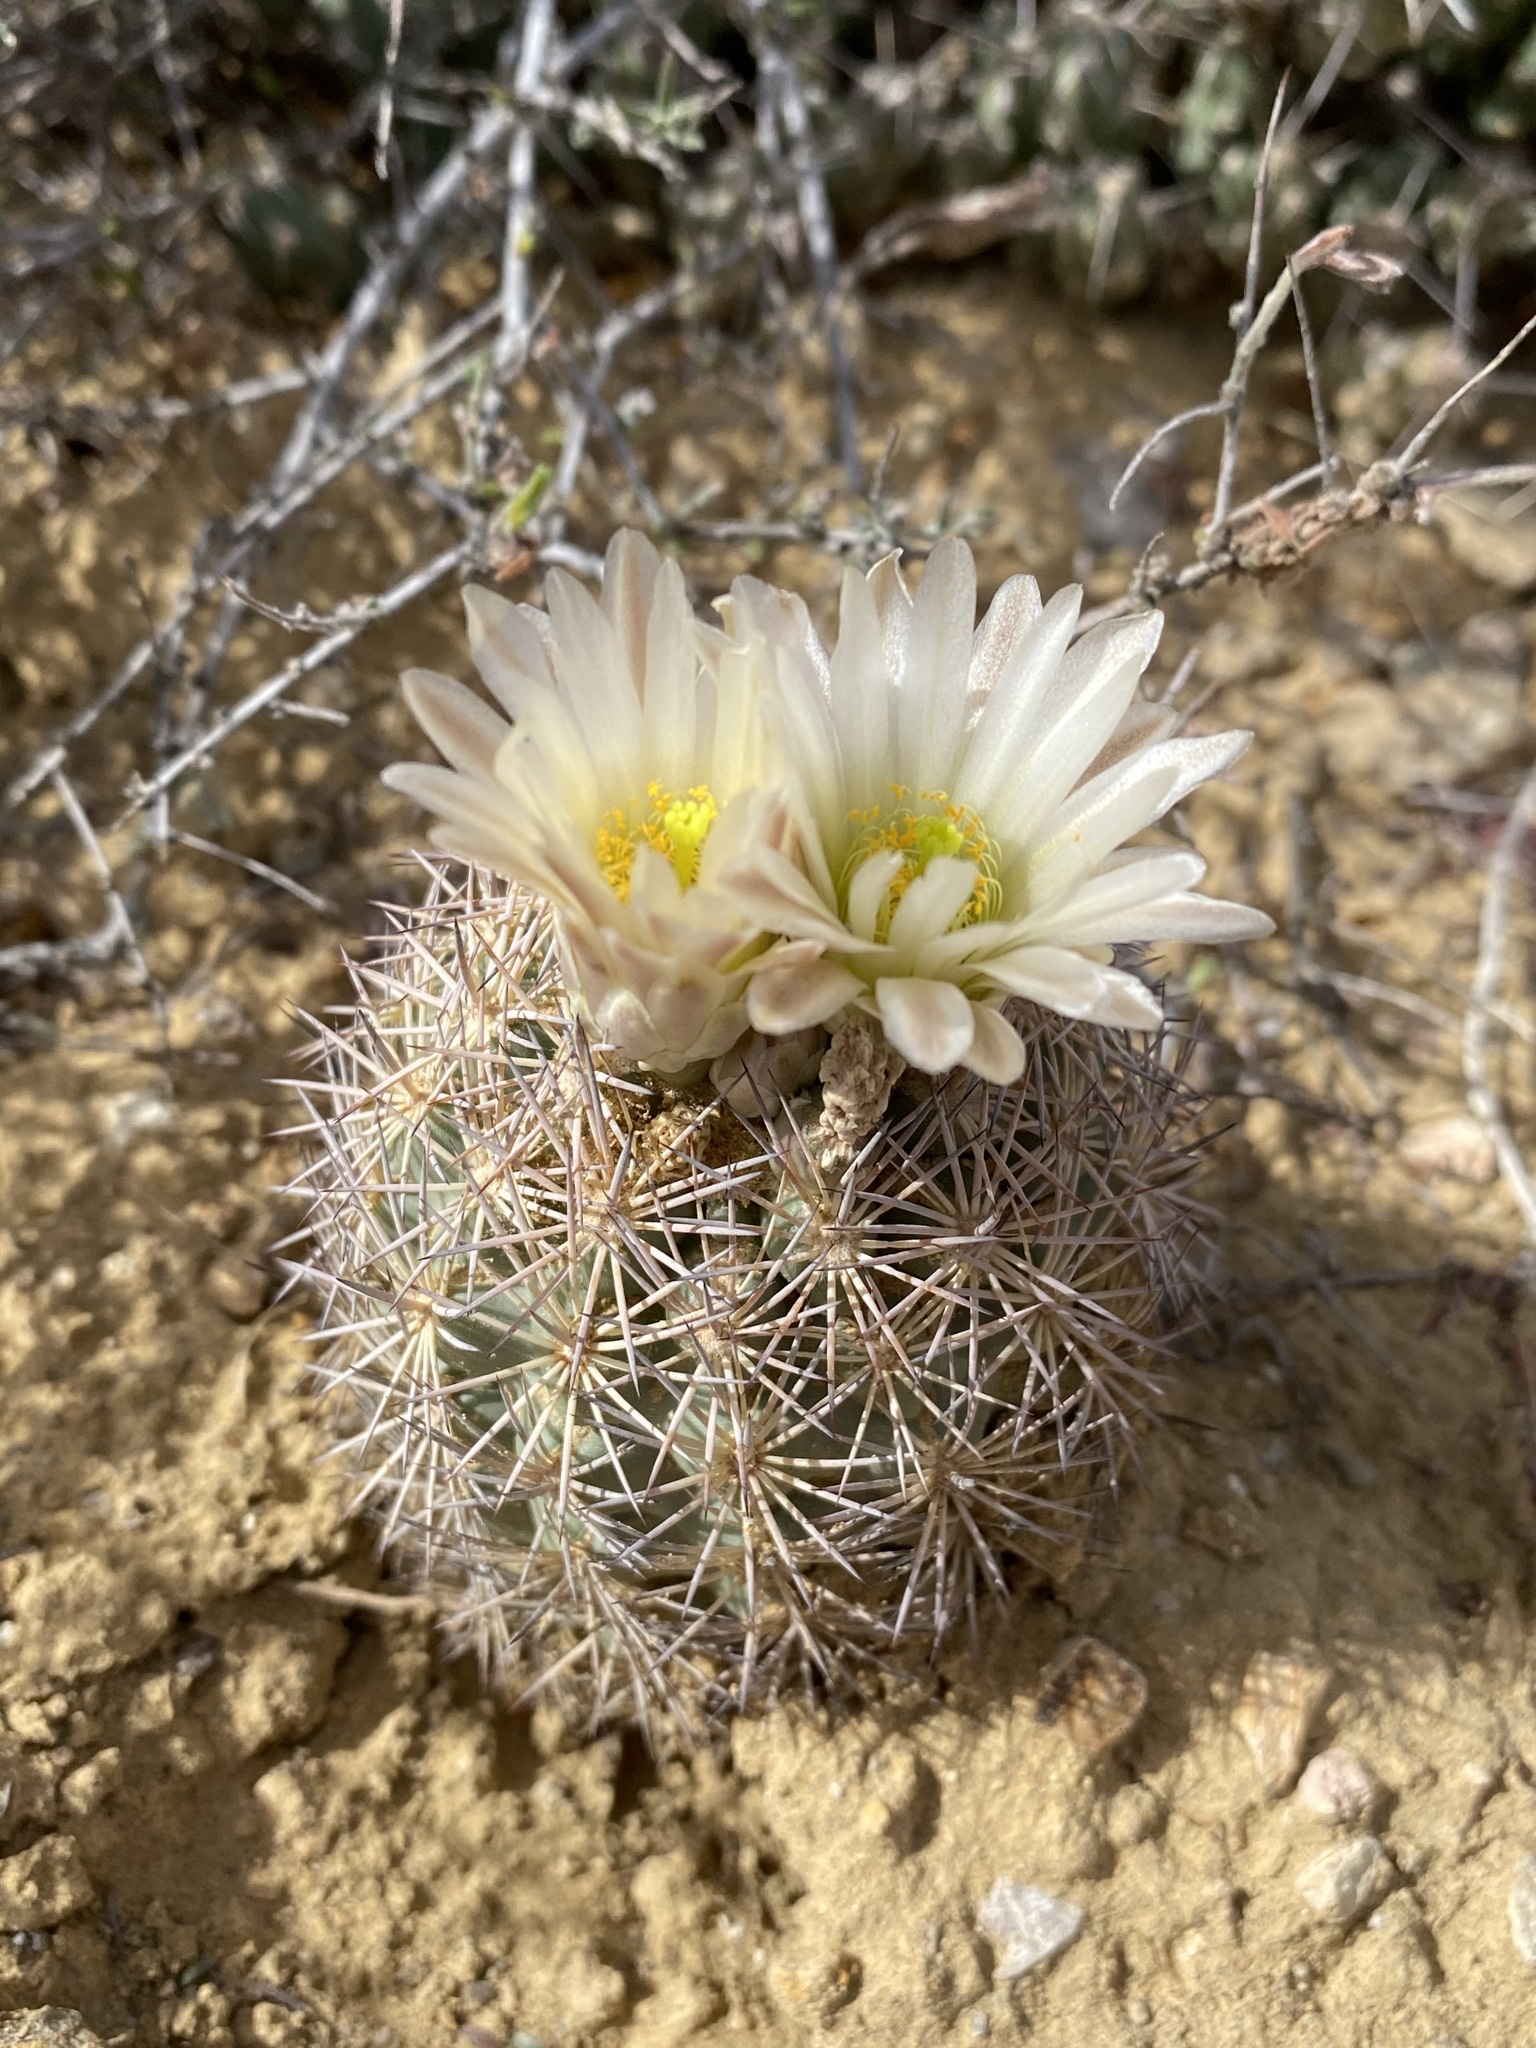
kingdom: Plantae
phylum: Tracheophyta
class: Magnoliopsida
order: Caryophyllales
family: Cactaceae
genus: Sclerocactus
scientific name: Sclerocactus warnockii
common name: Pineapple cactus
